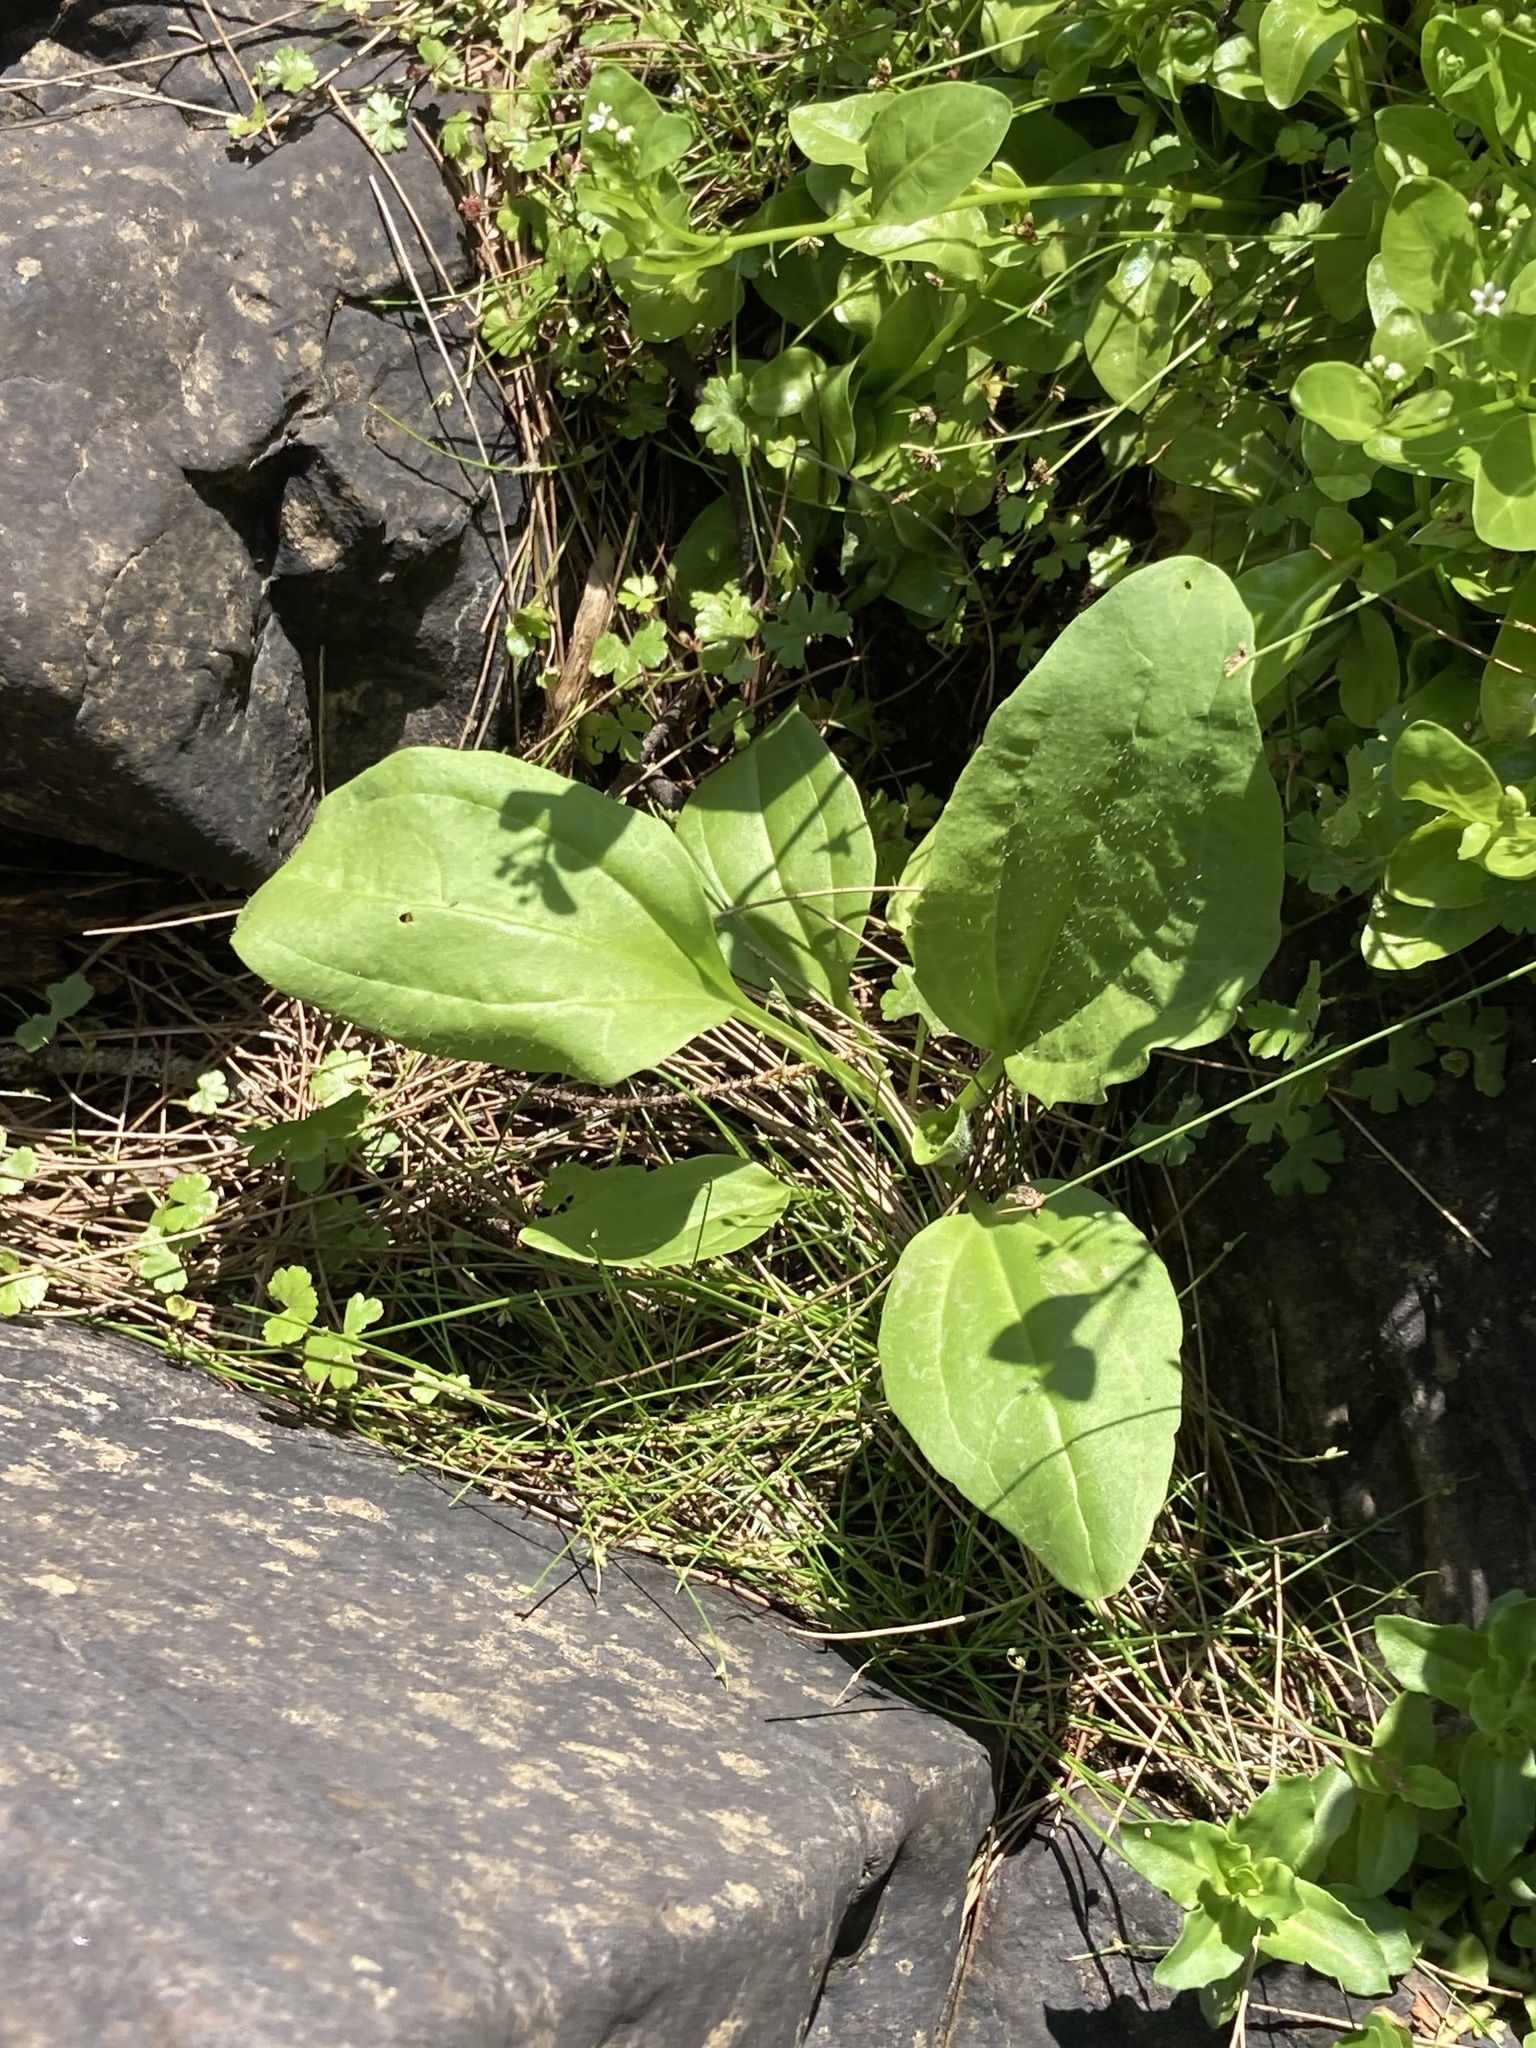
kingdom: Plantae
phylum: Tracheophyta
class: Magnoliopsida
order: Lamiales
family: Plantaginaceae
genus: Plantago
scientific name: Plantago major
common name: Common plantain
